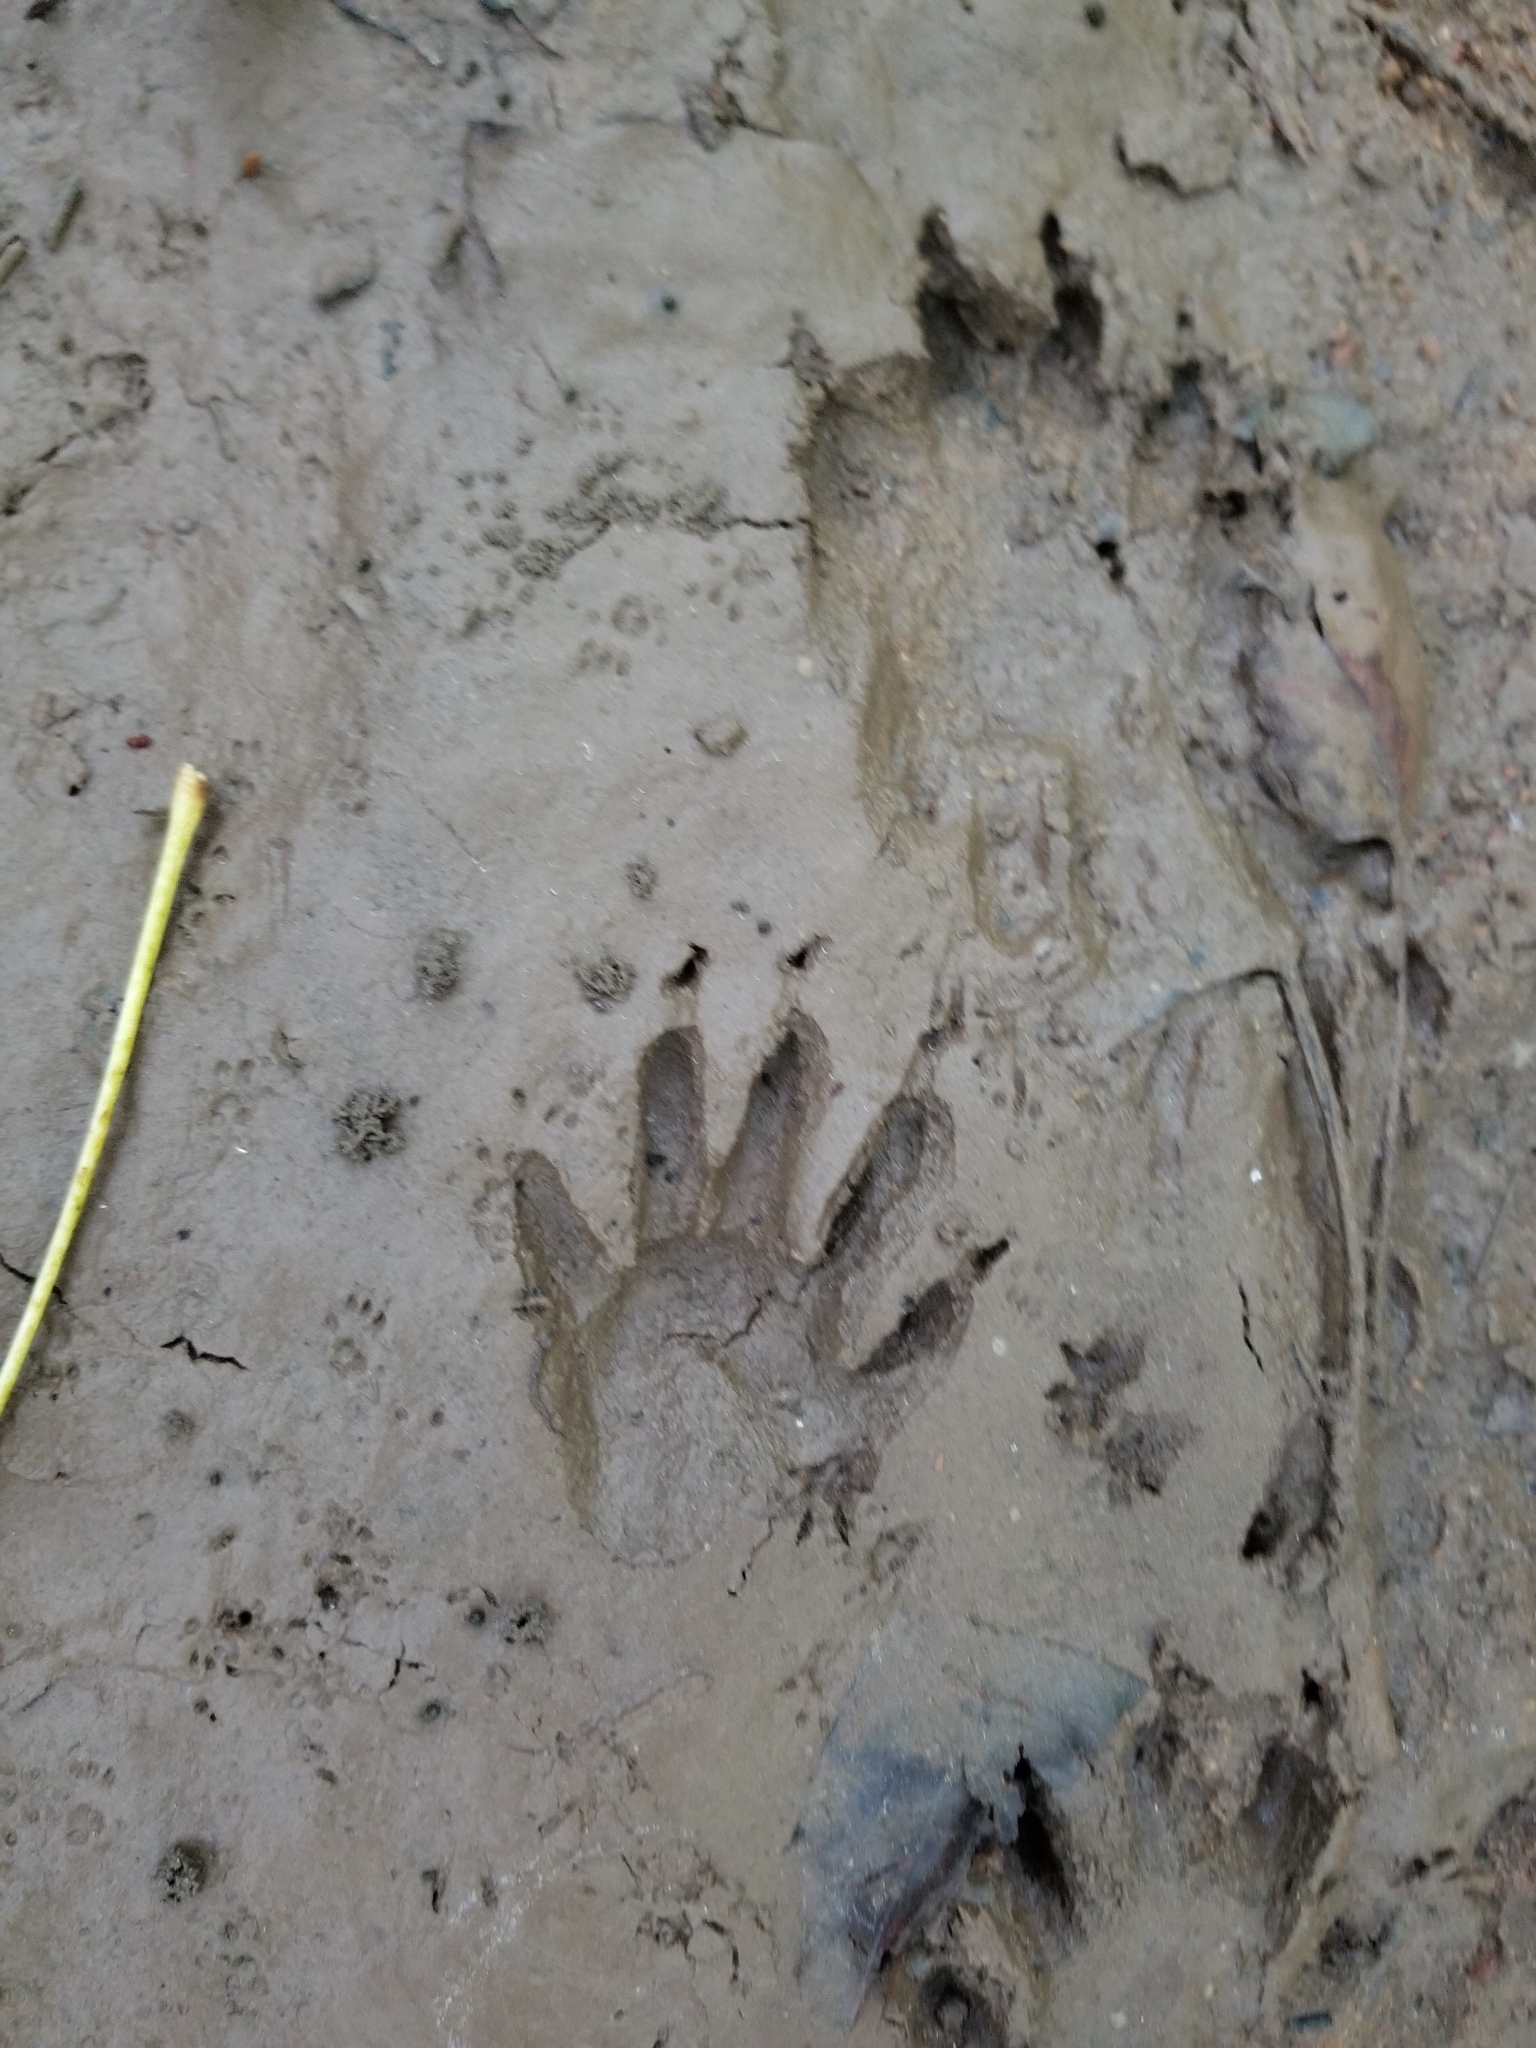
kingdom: Animalia
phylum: Chordata
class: Mammalia
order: Carnivora
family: Procyonidae
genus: Procyon
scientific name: Procyon lotor
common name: Raccoon
